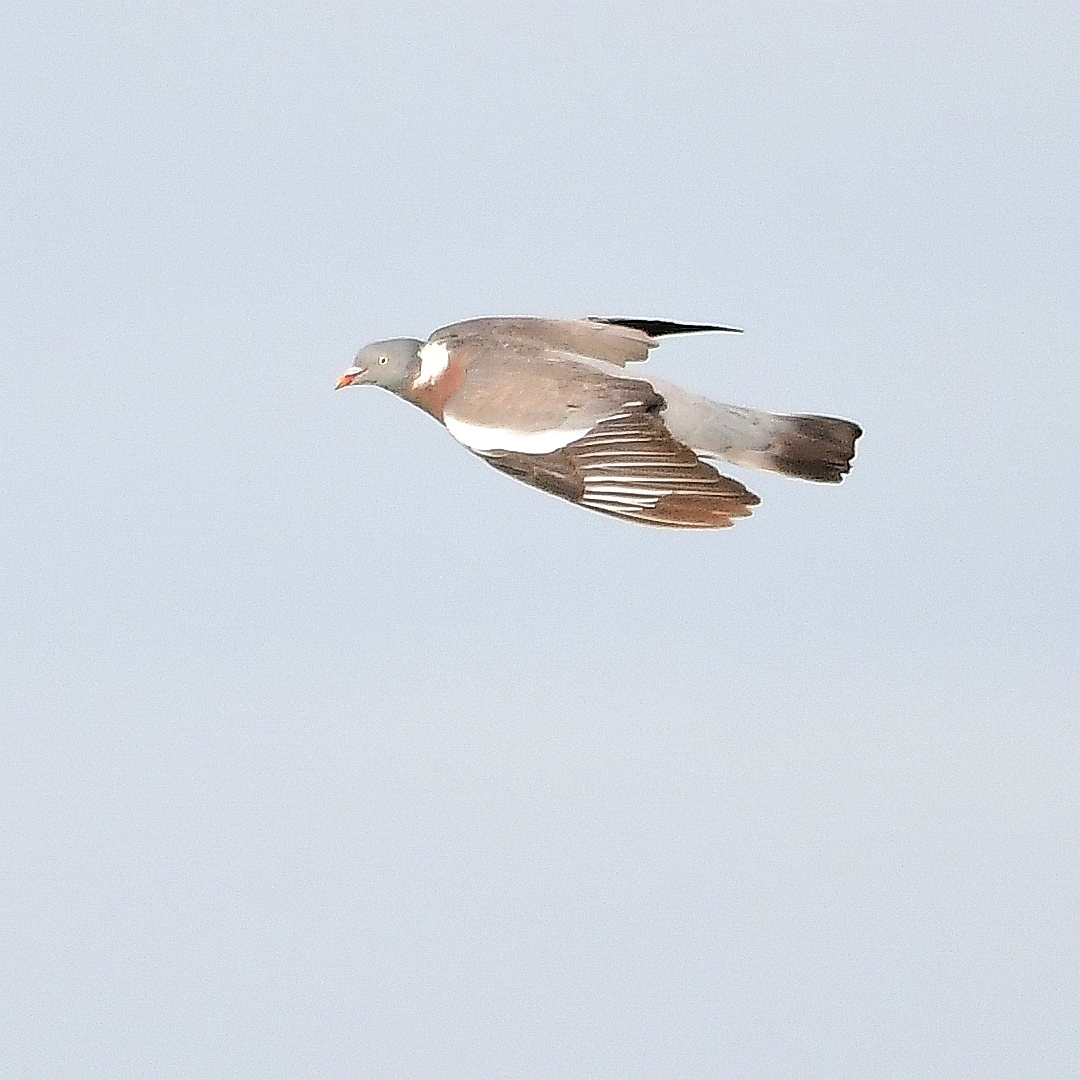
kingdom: Animalia
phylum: Chordata
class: Aves
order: Columbiformes
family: Columbidae
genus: Columba
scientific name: Columba palumbus
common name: Common wood pigeon
